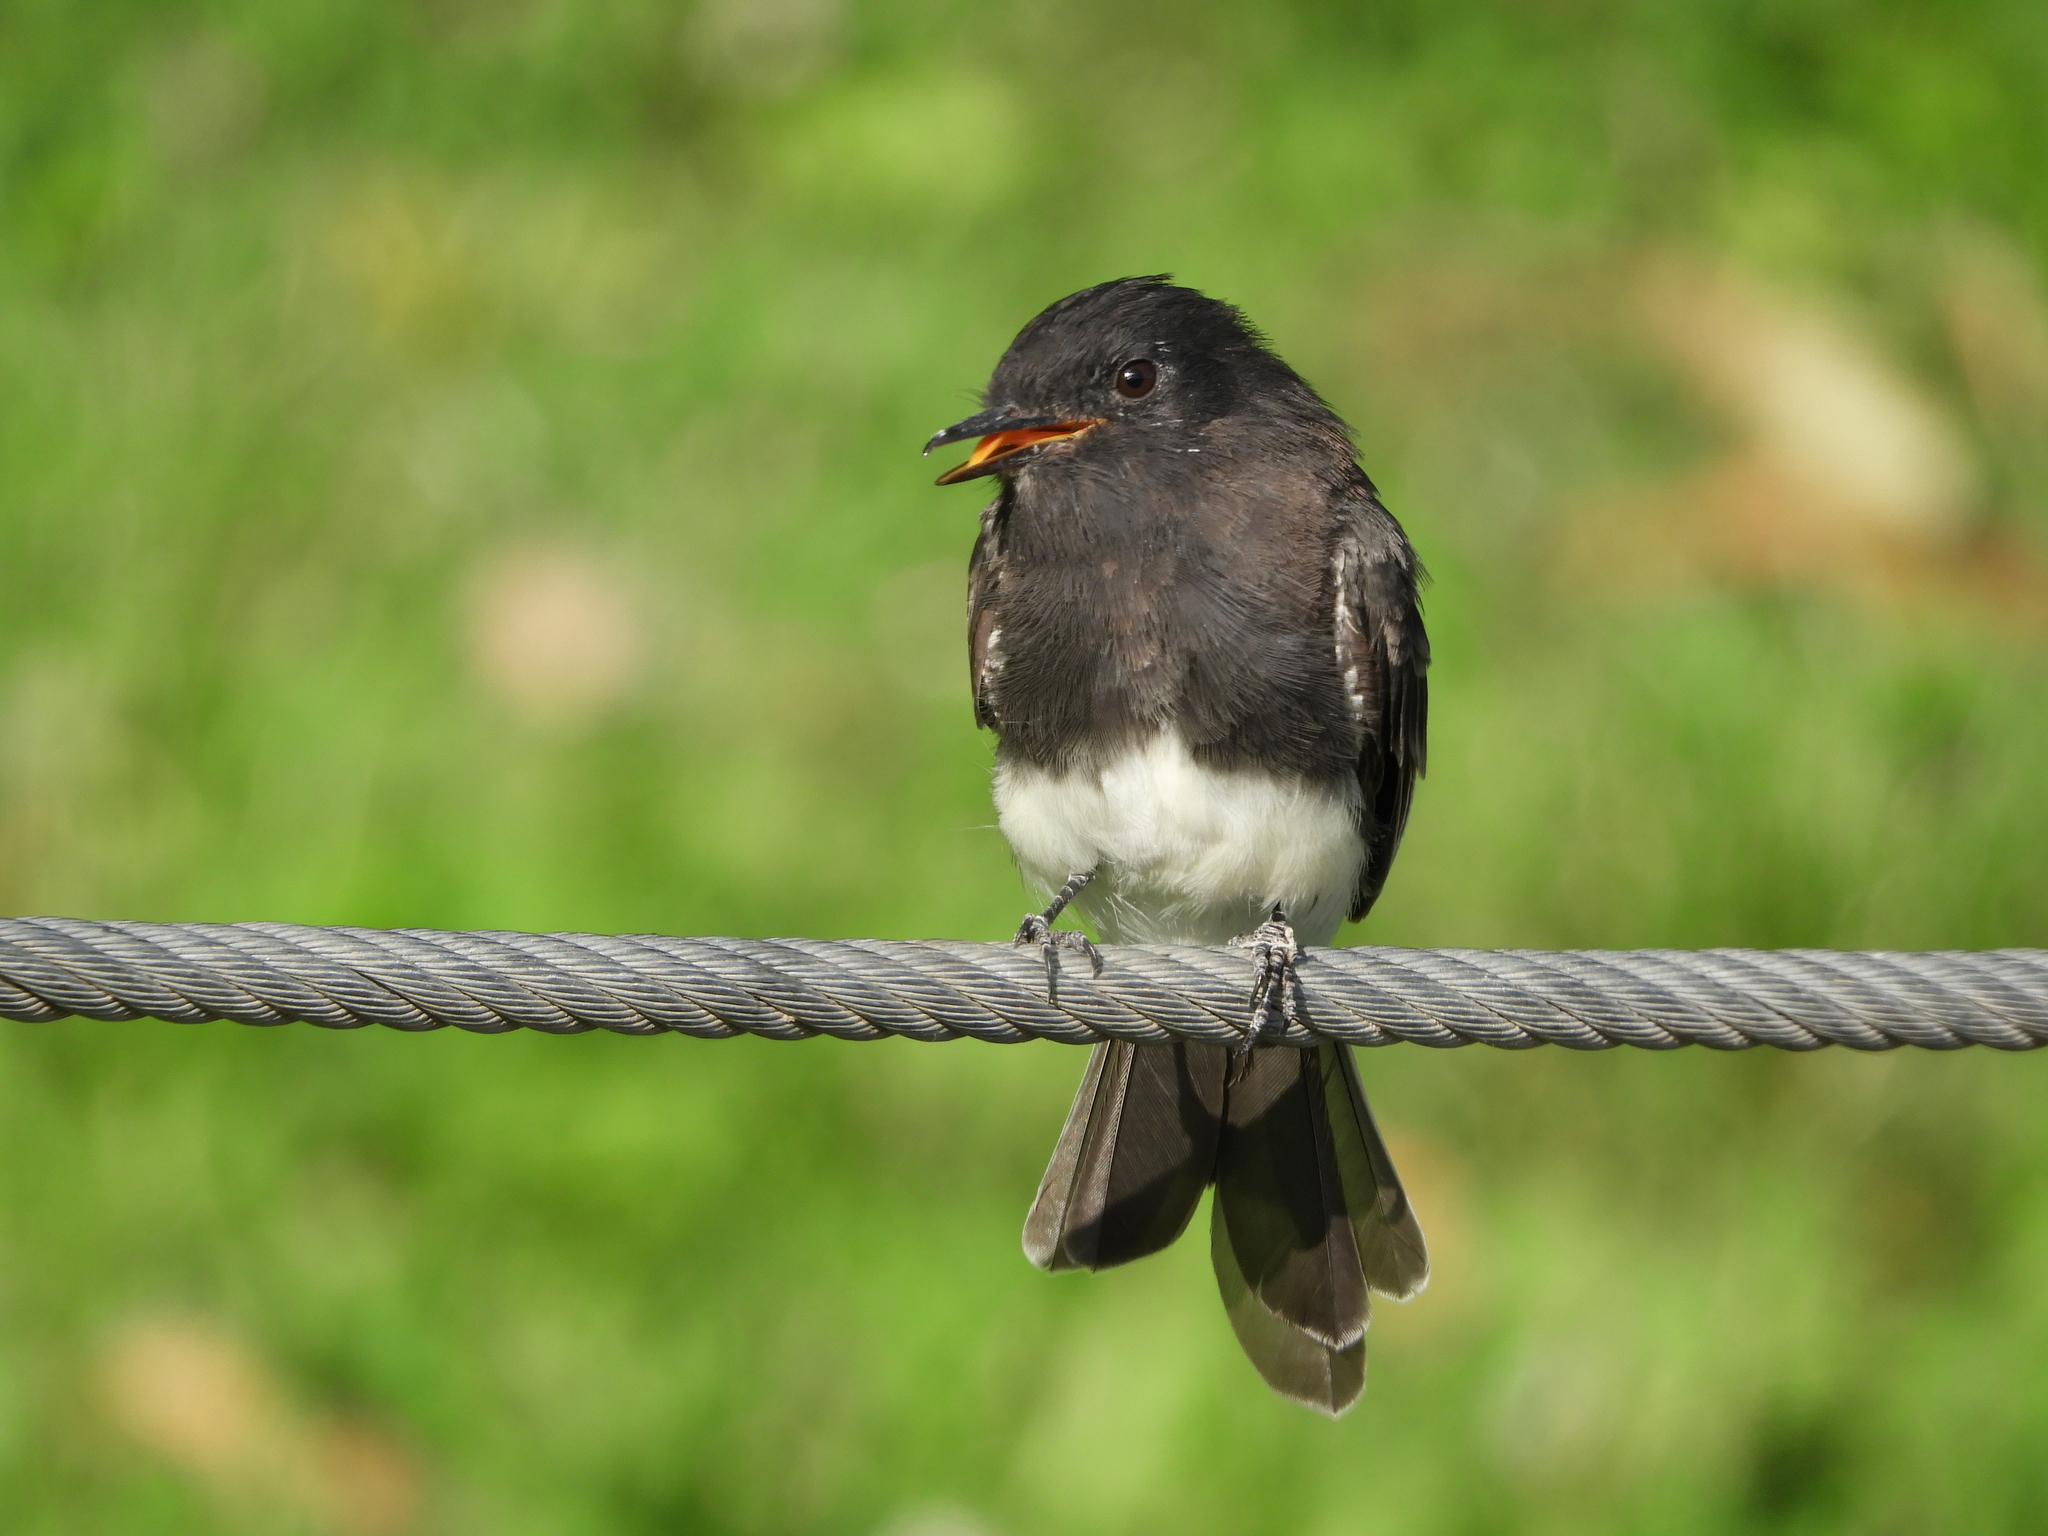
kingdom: Animalia
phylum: Chordata
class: Aves
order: Passeriformes
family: Tyrannidae
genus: Sayornis
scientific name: Sayornis nigricans
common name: Black phoebe
